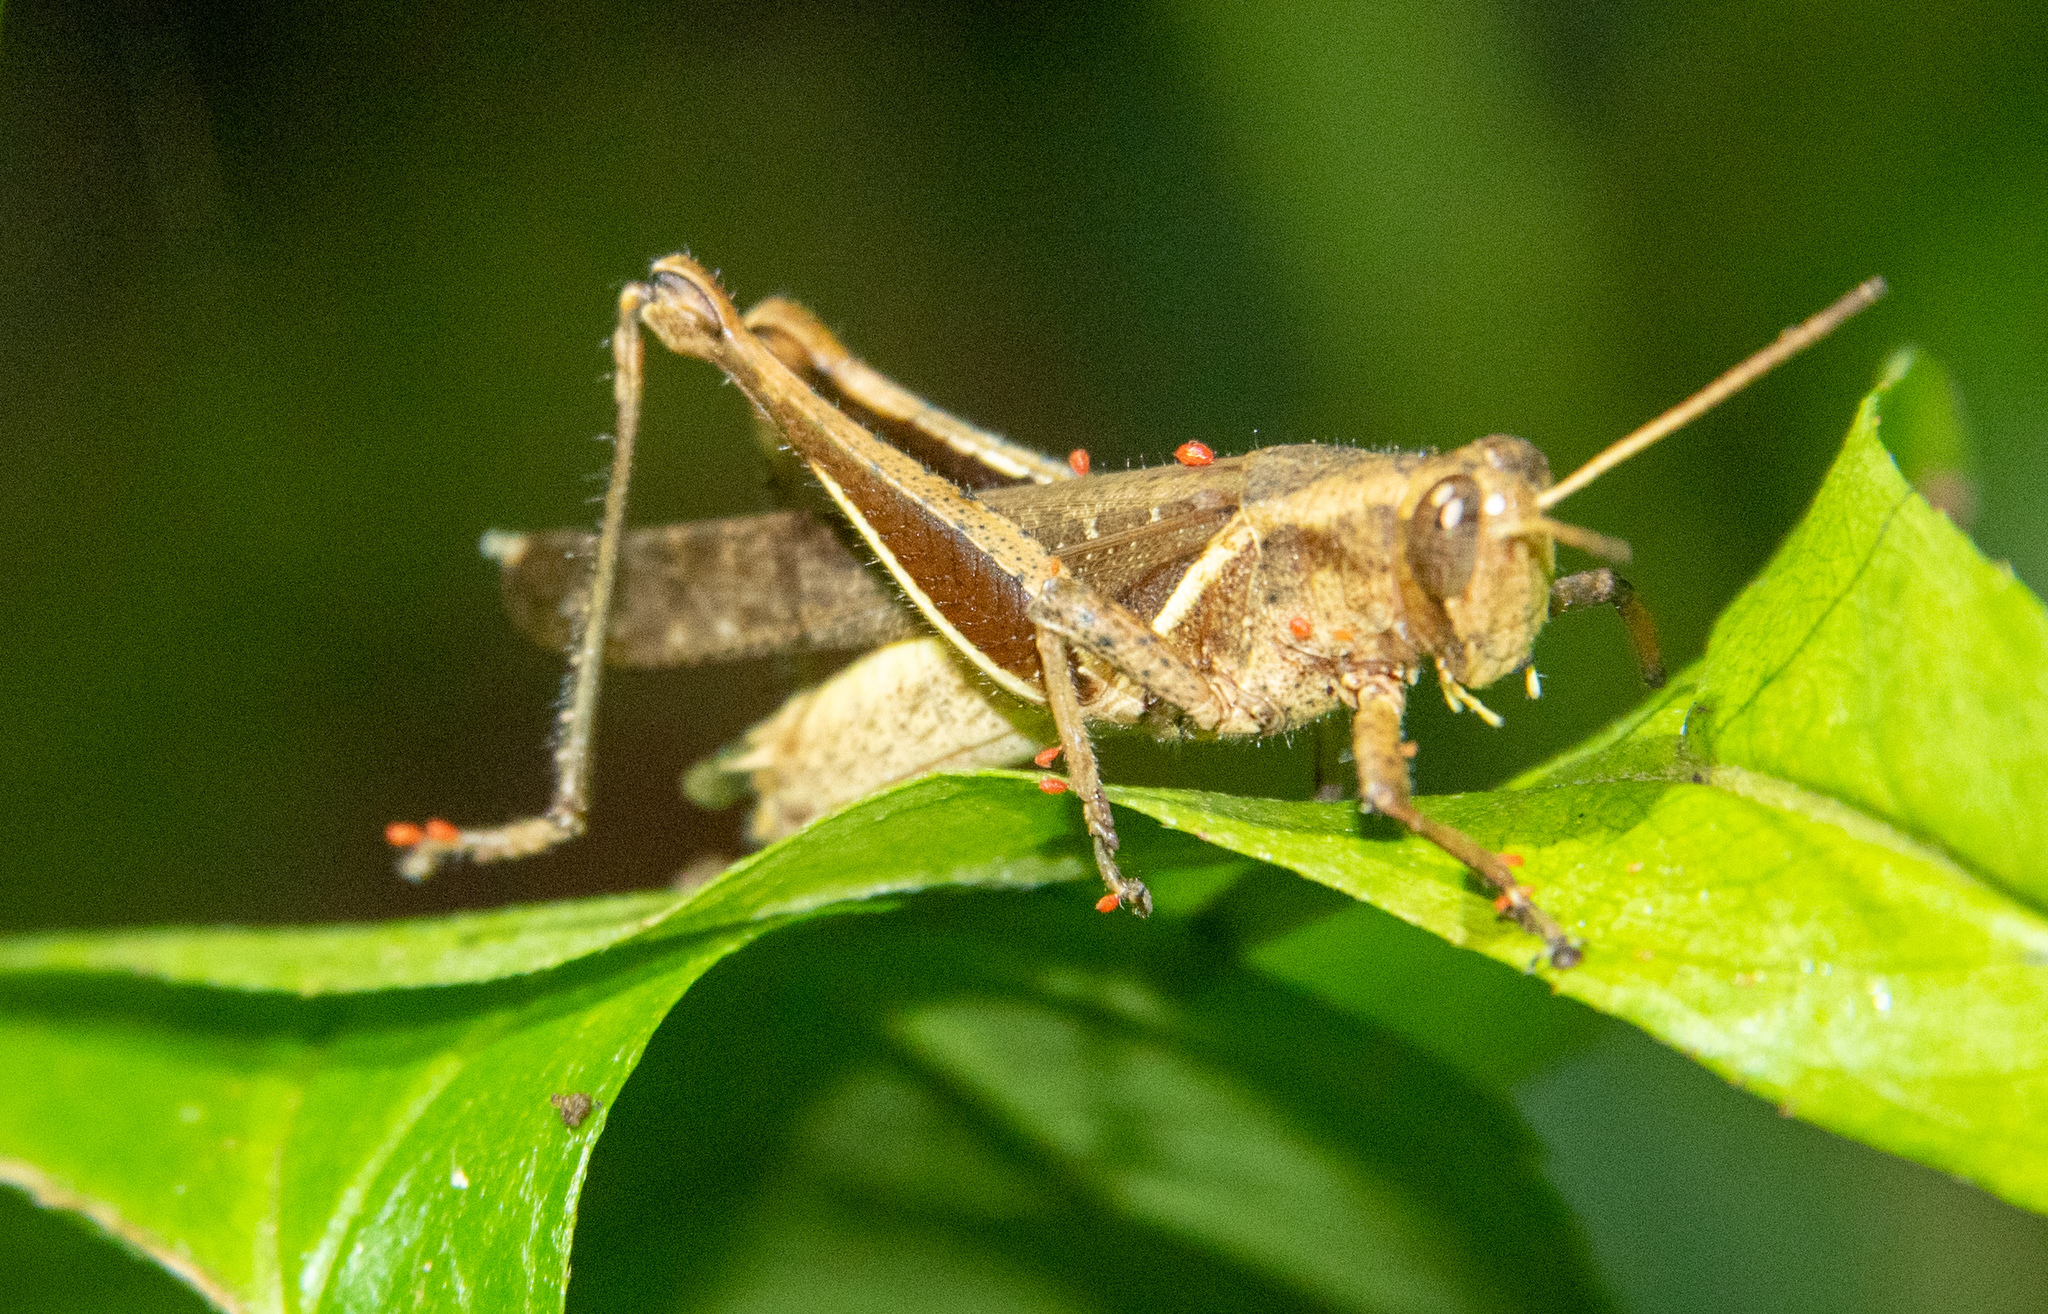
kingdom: Animalia
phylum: Arthropoda
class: Insecta
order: Orthoptera
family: Acrididae
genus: Abracris
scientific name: Abracris flavolineata
